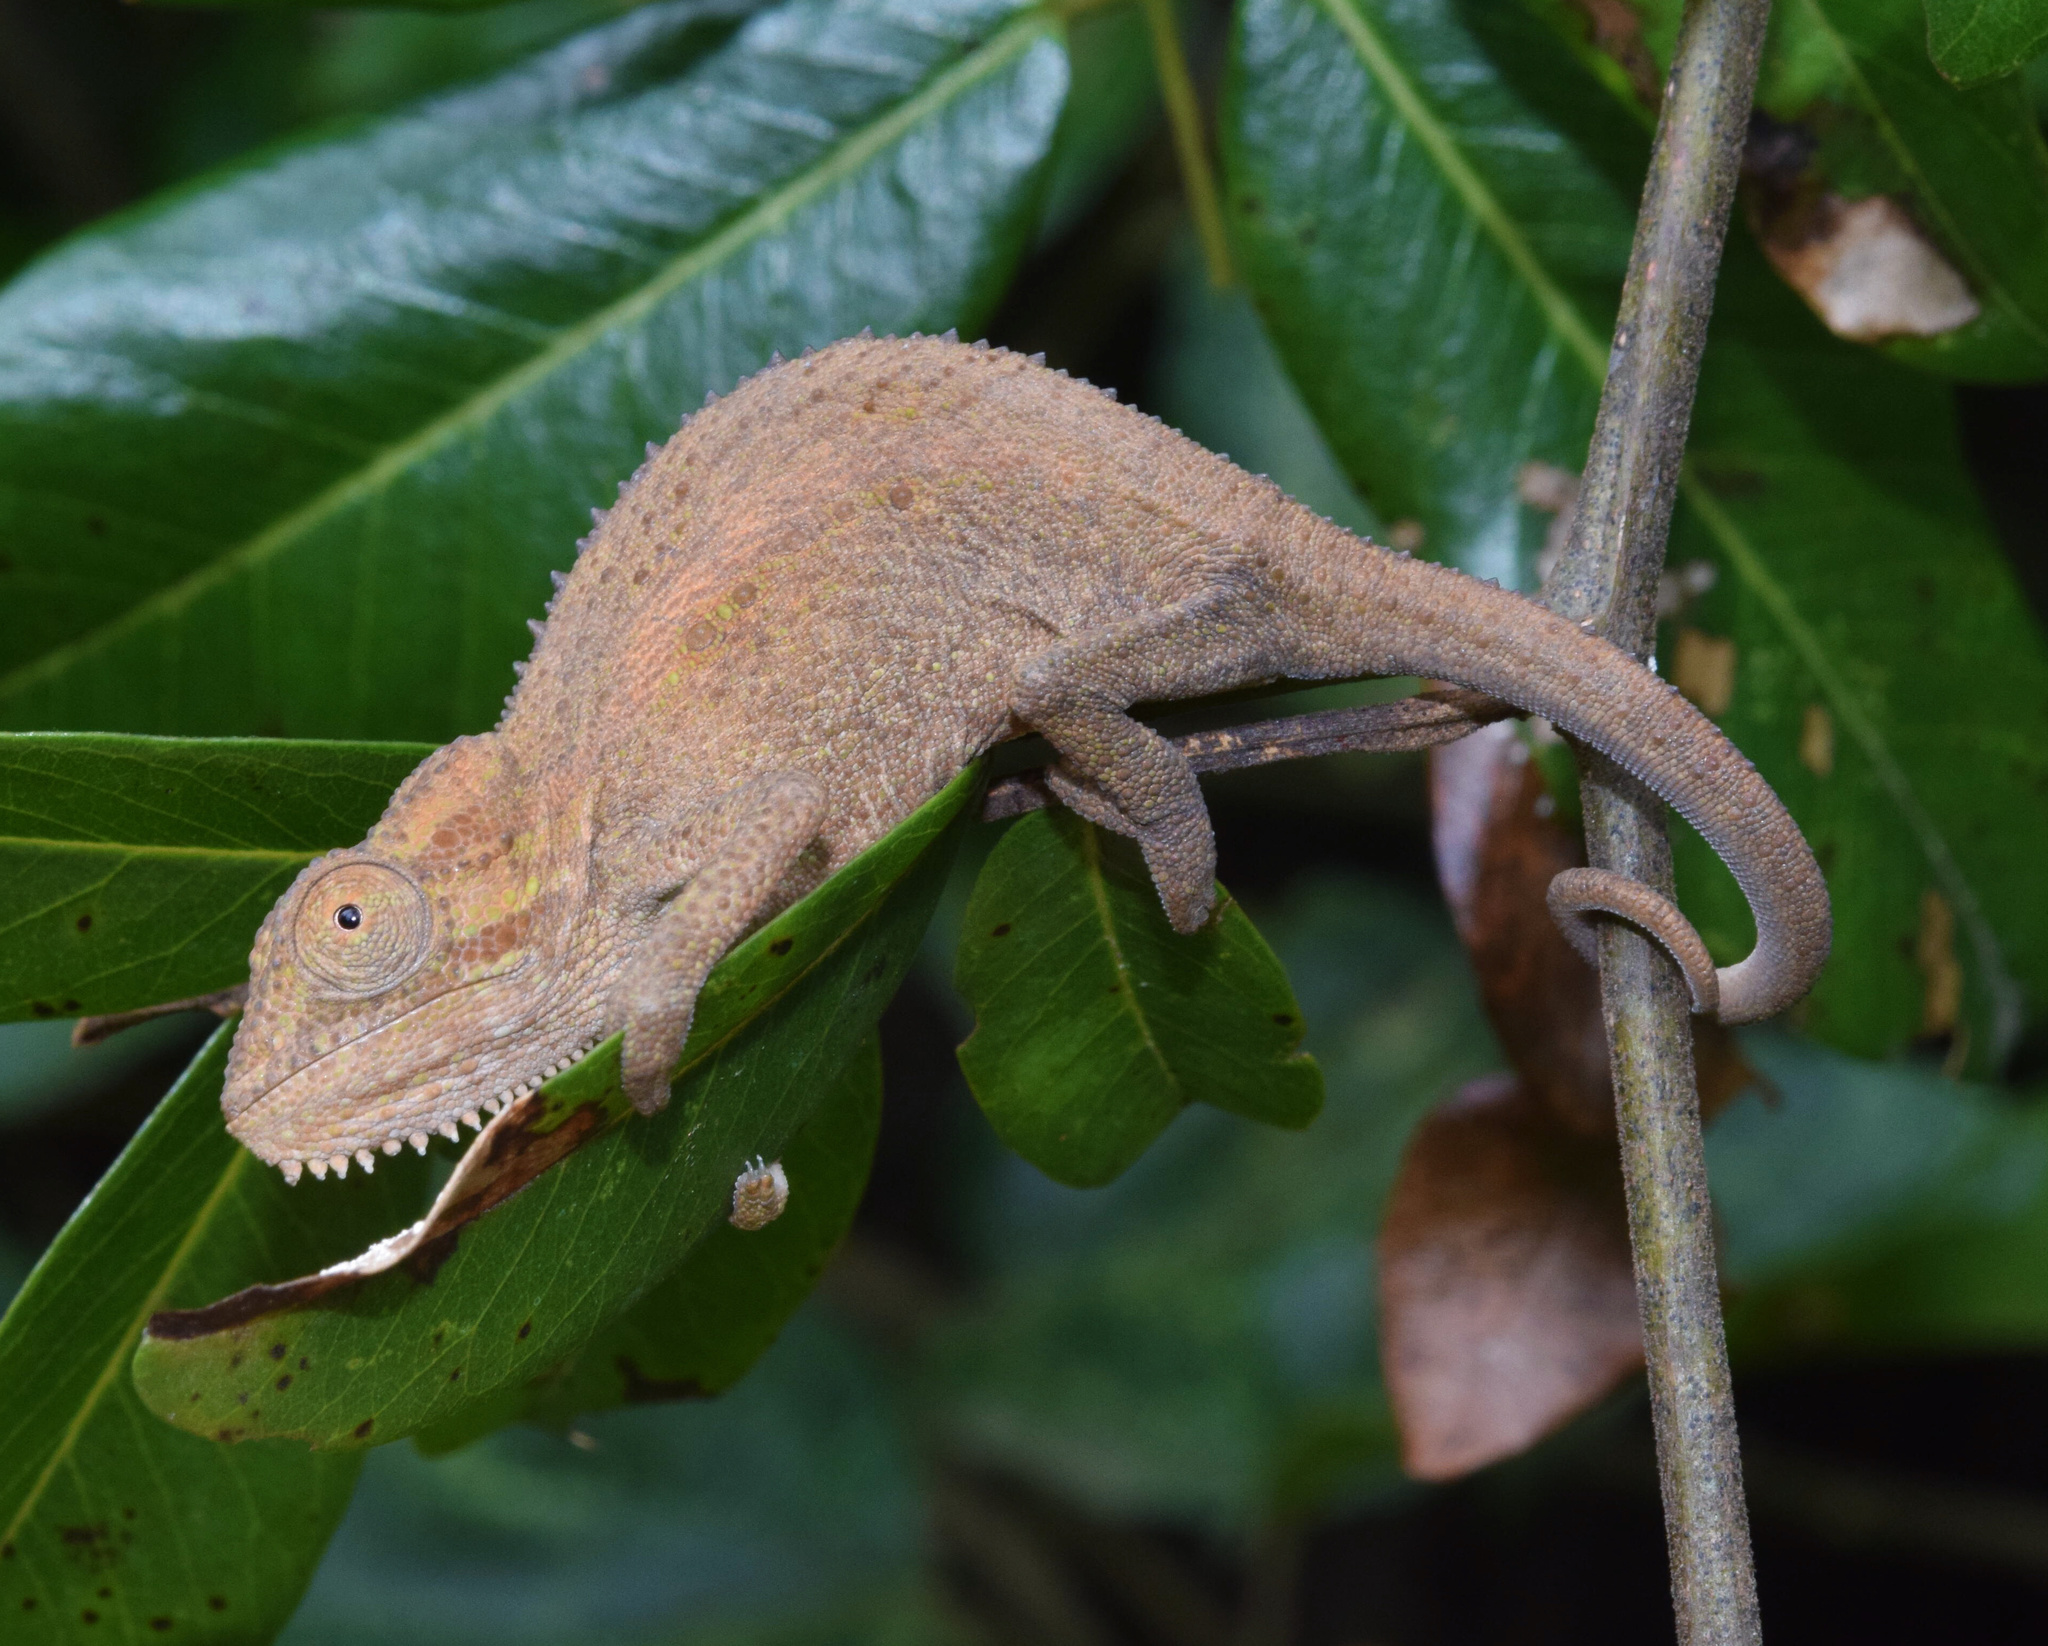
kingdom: Animalia
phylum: Chordata
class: Squamata
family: Chamaeleonidae
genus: Bradypodion
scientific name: Bradypodion melanocephalum
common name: Black-headed dwarf chameleon
